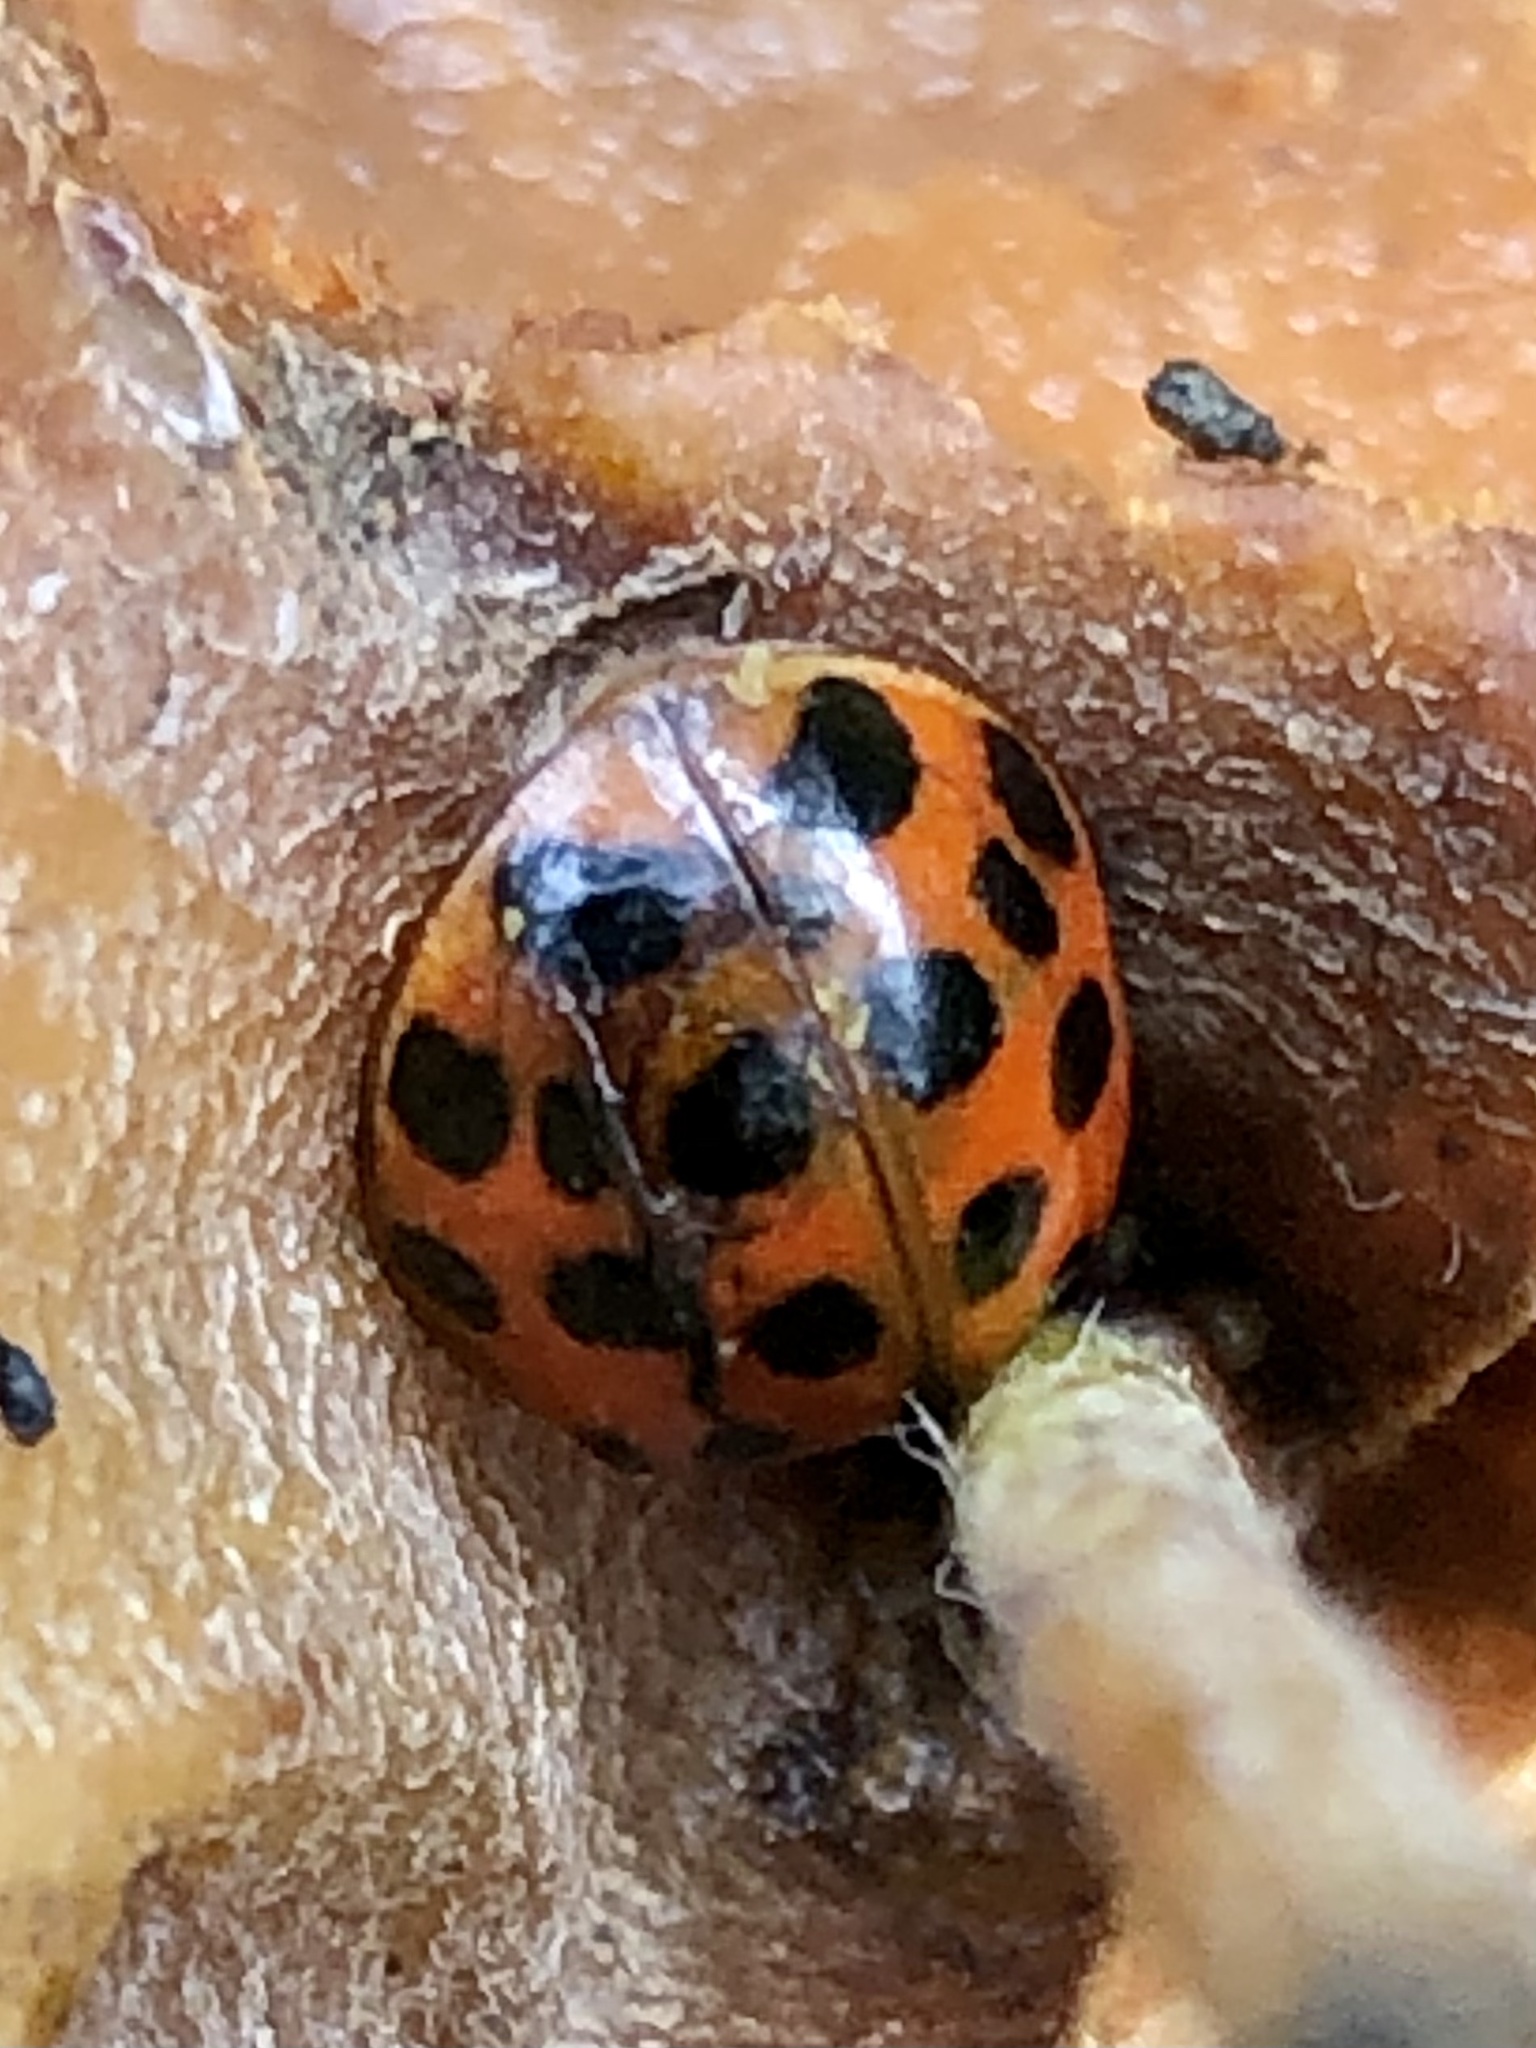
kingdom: Animalia
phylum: Arthropoda
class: Insecta
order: Coleoptera
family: Coccinellidae
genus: Harmonia
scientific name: Harmonia axyridis
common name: Harlequin ladybird
